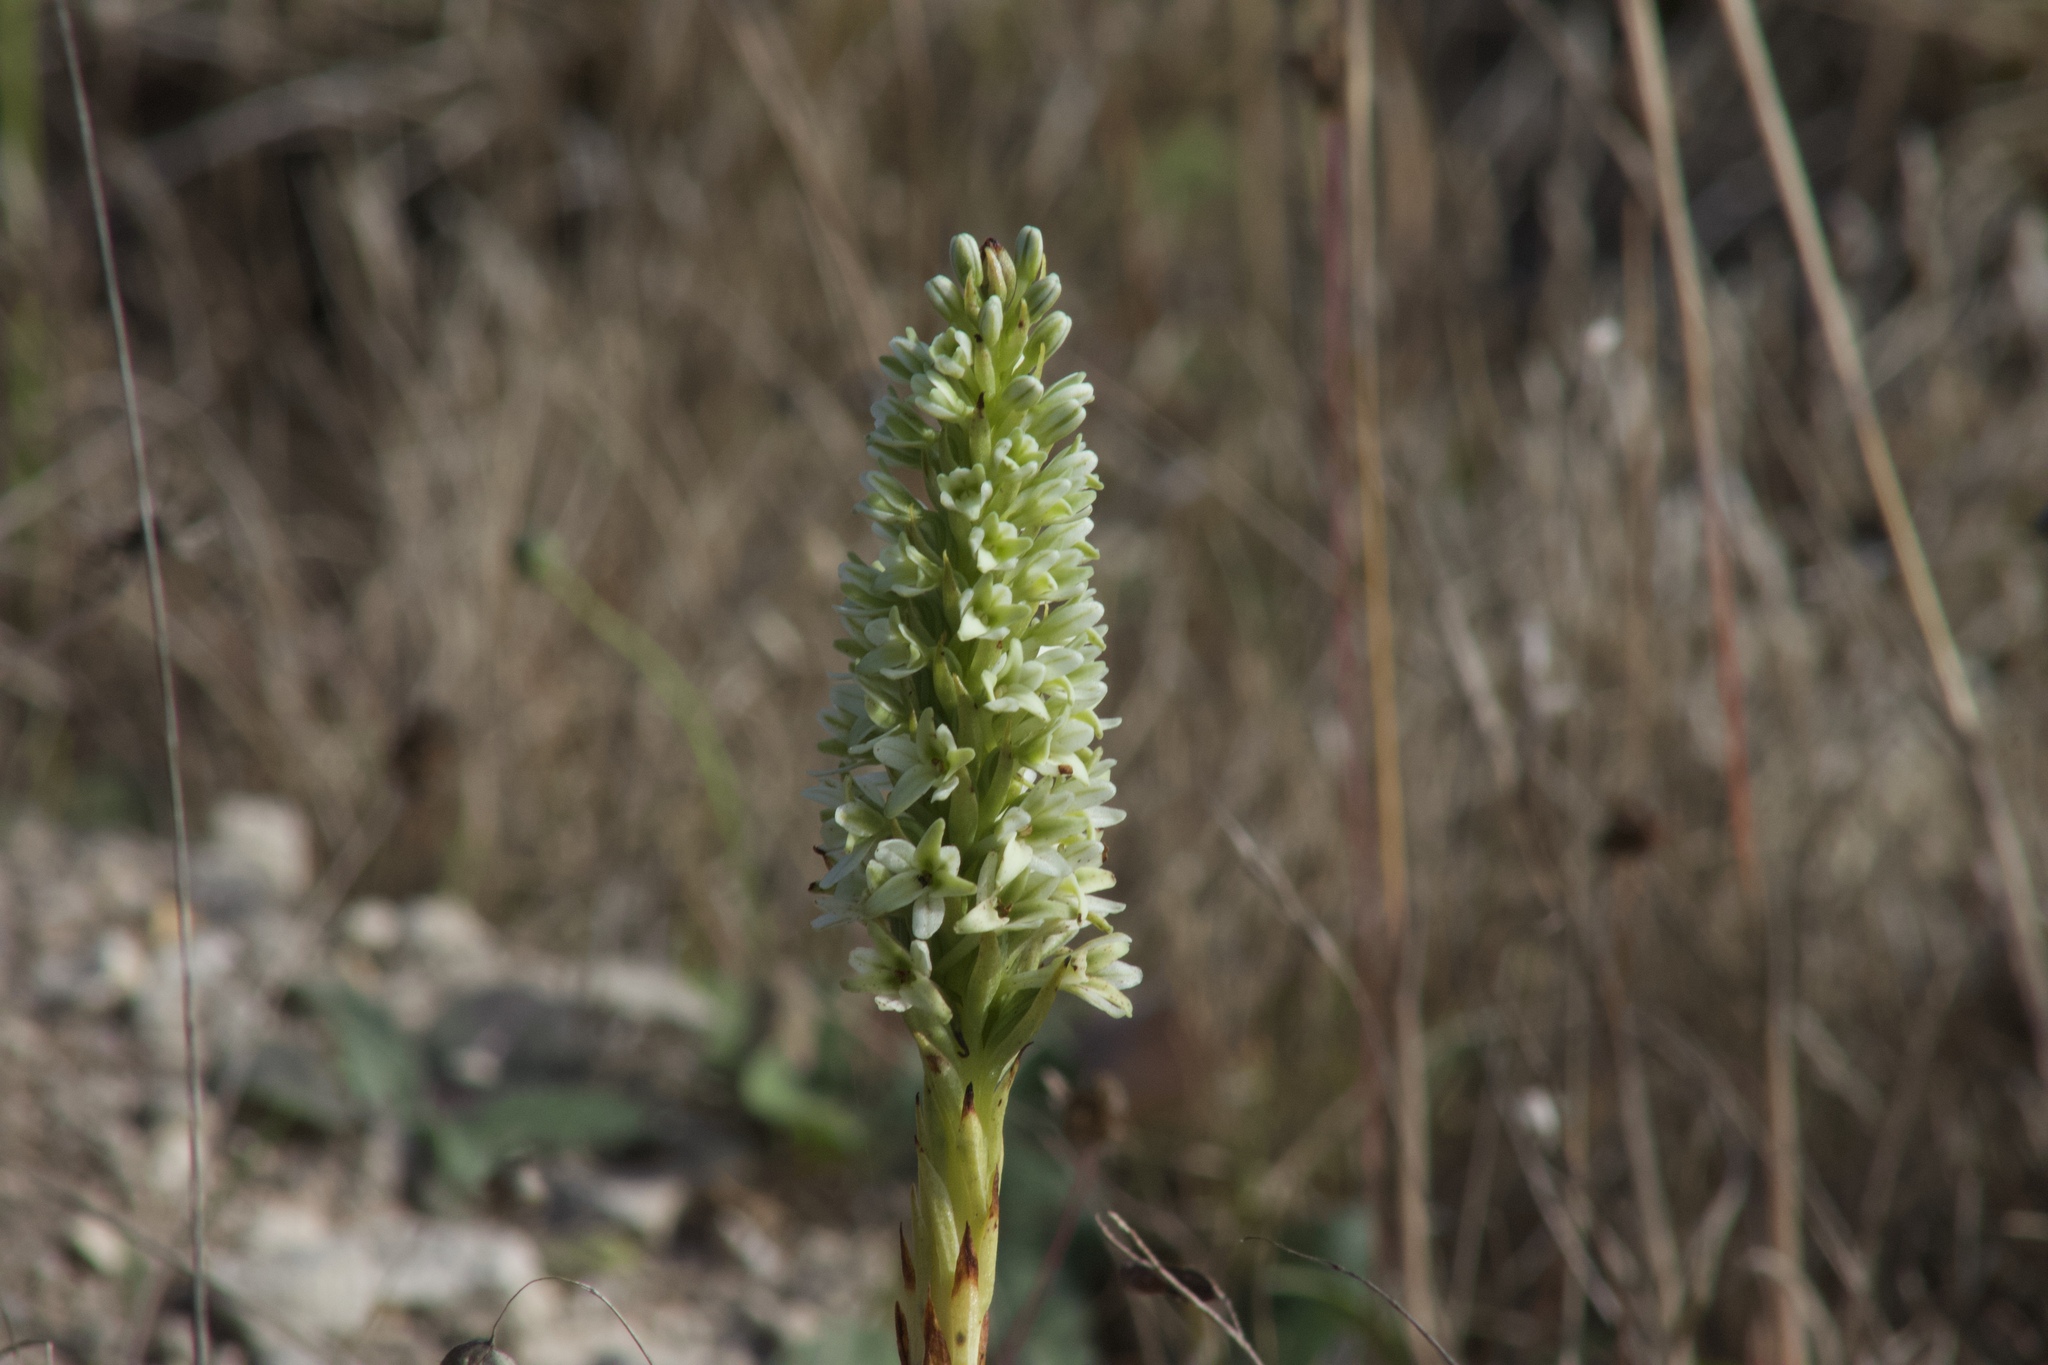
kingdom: Plantae
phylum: Tracheophyta
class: Liliopsida
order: Asparagales
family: Orchidaceae
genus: Platanthera
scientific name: Platanthera elegans
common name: Coast piperia
